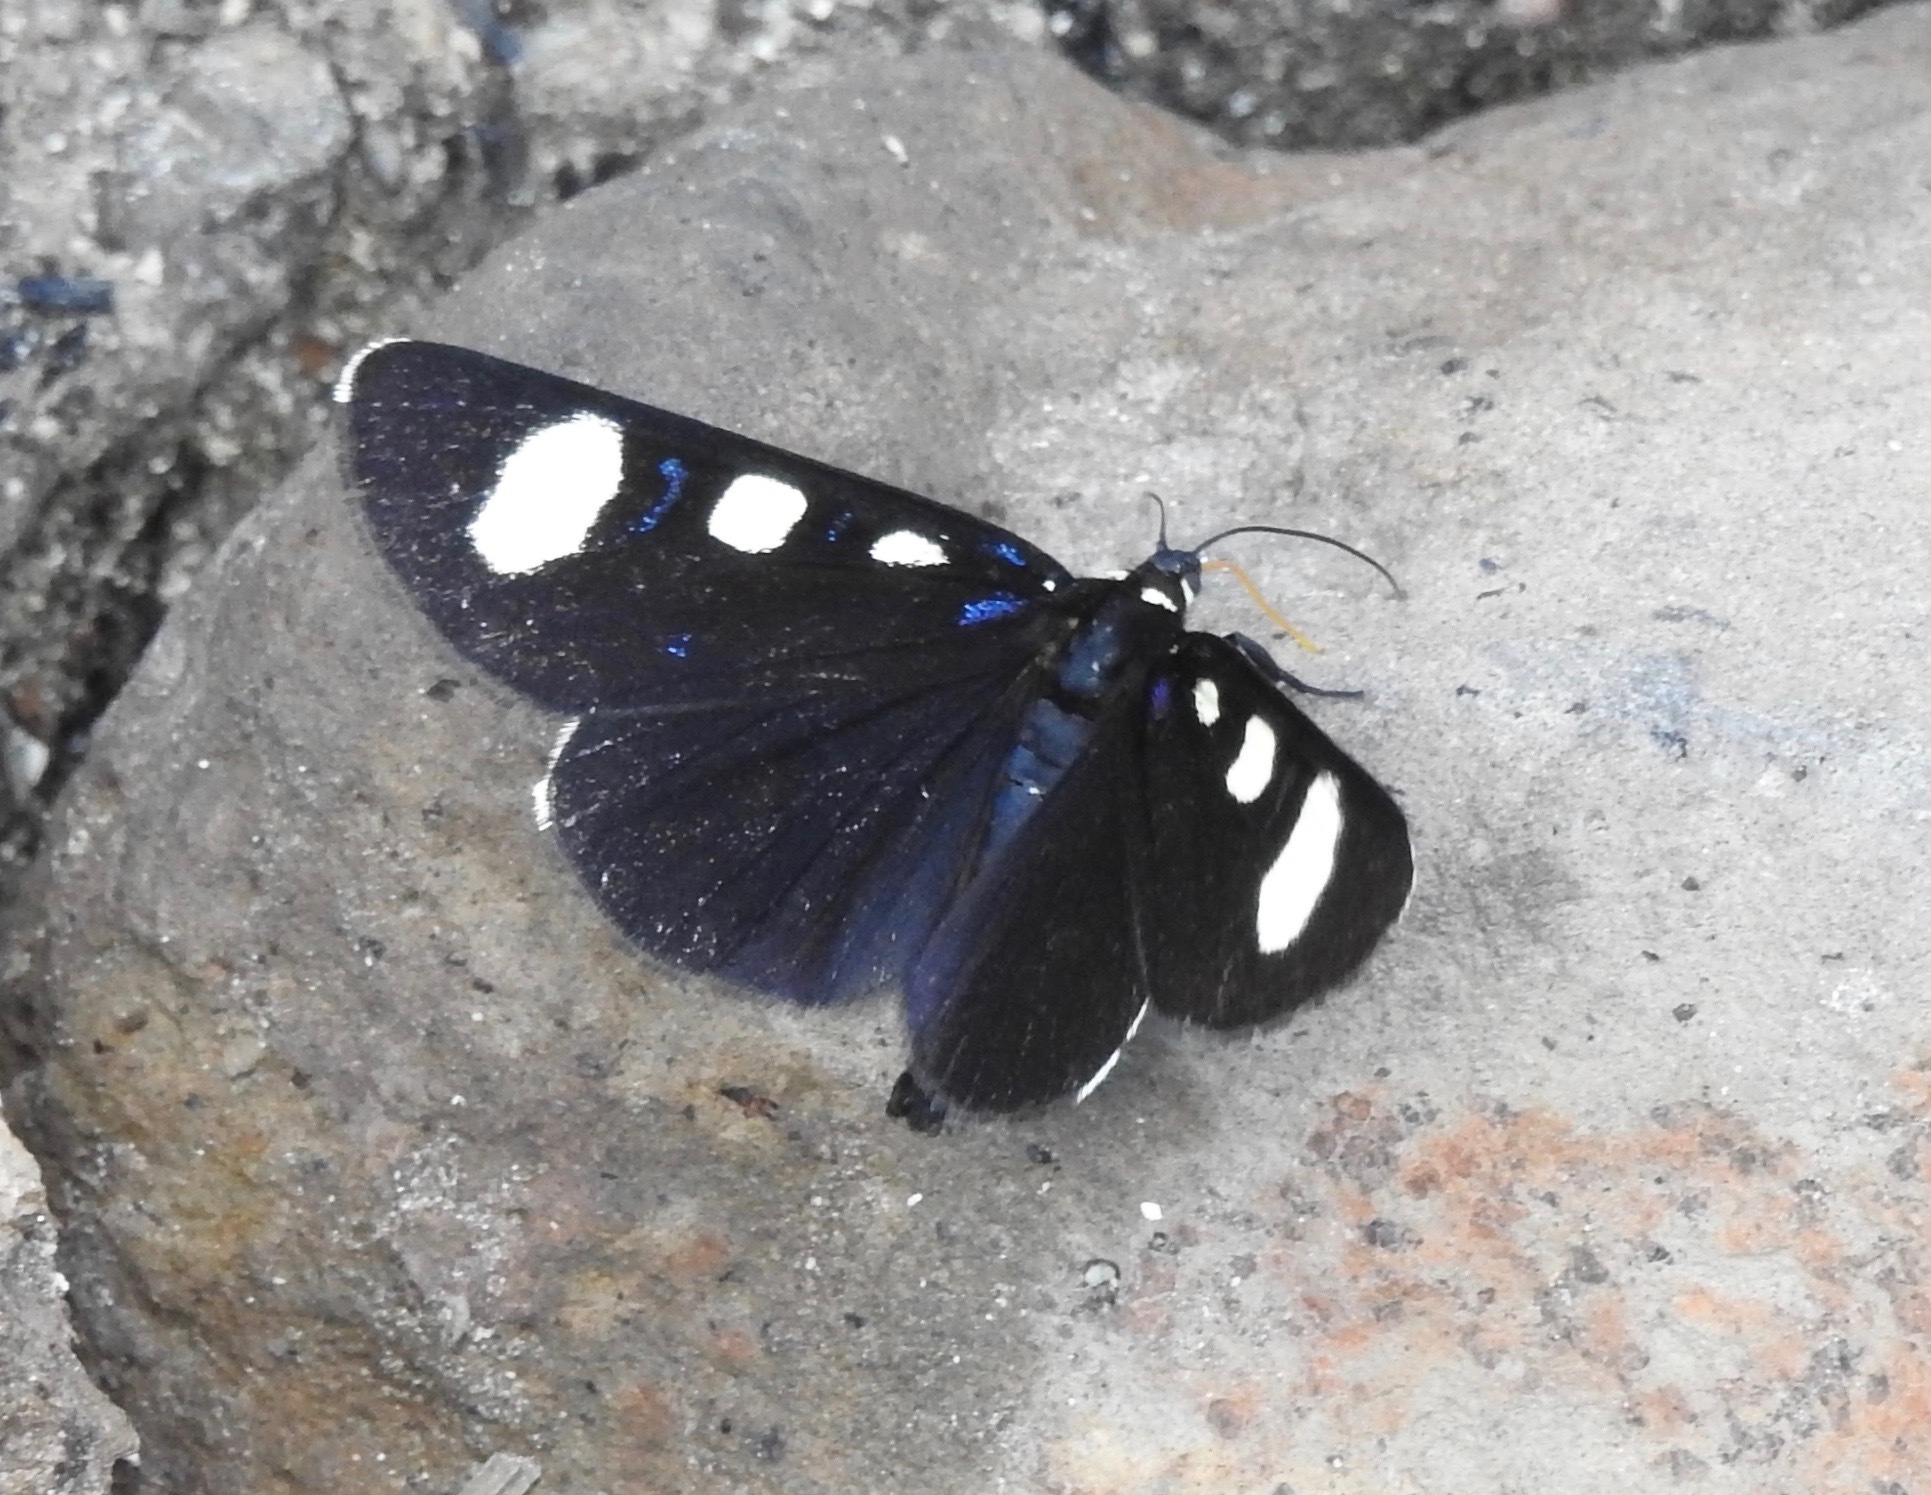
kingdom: Animalia
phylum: Arthropoda
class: Insecta
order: Lepidoptera
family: Noctuidae
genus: Alypiodes
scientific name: Alypiodes bimaculata
